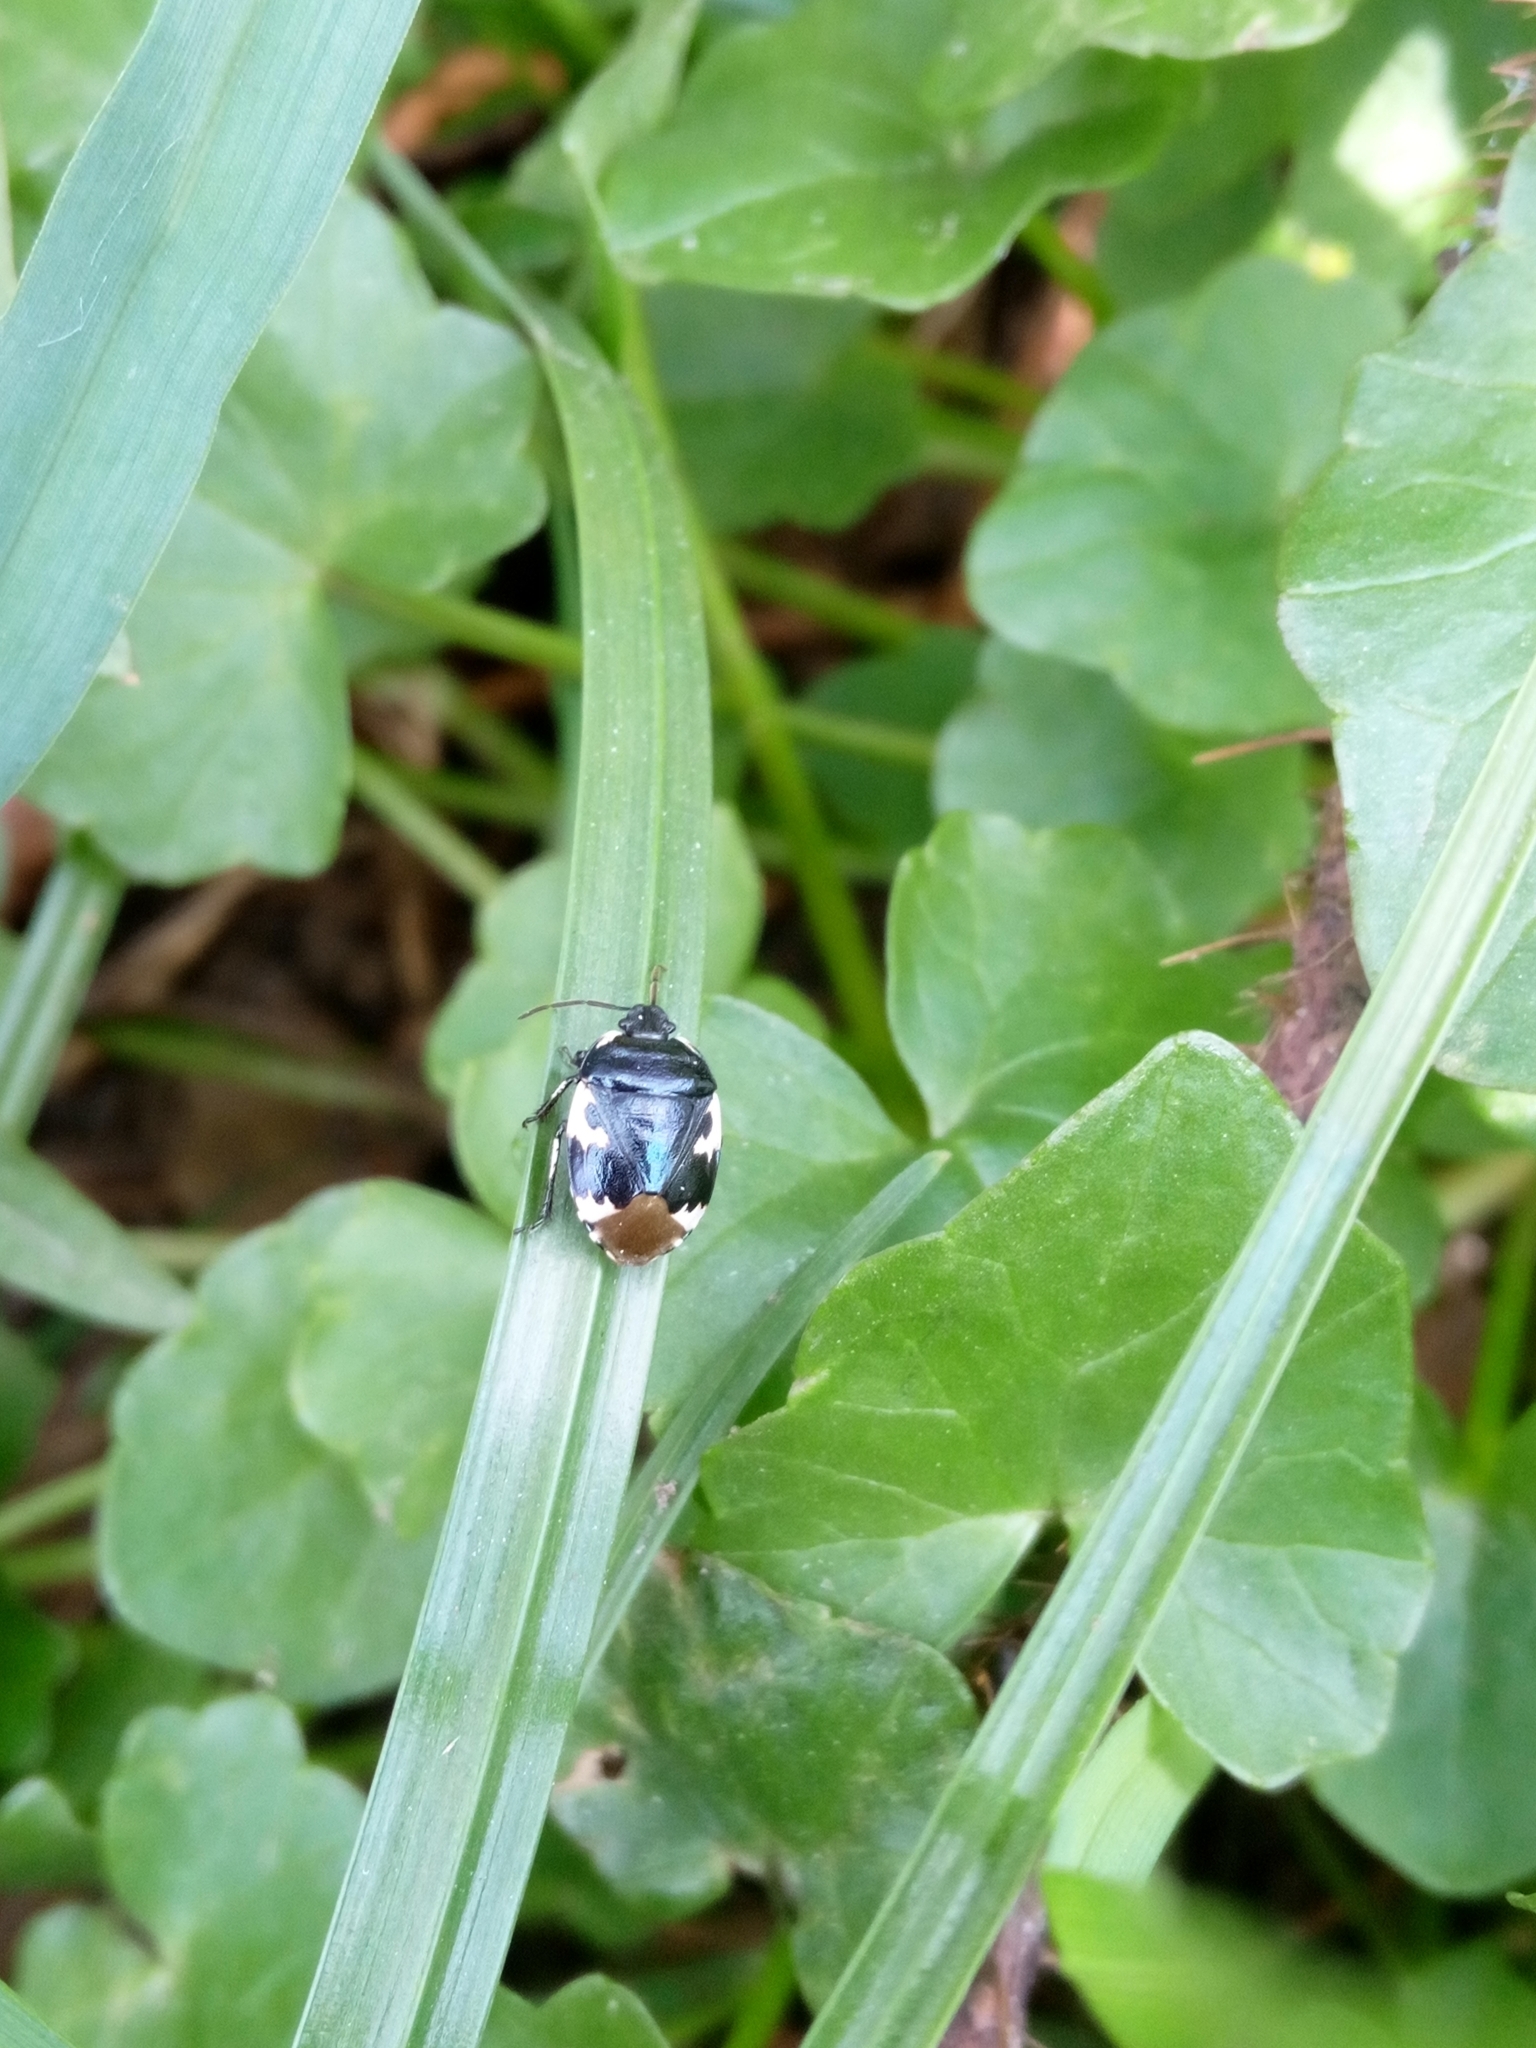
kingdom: Animalia
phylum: Arthropoda
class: Insecta
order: Hemiptera
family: Cydnidae
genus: Tritomegas
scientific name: Tritomegas bicolor
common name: Pied shieldbug
